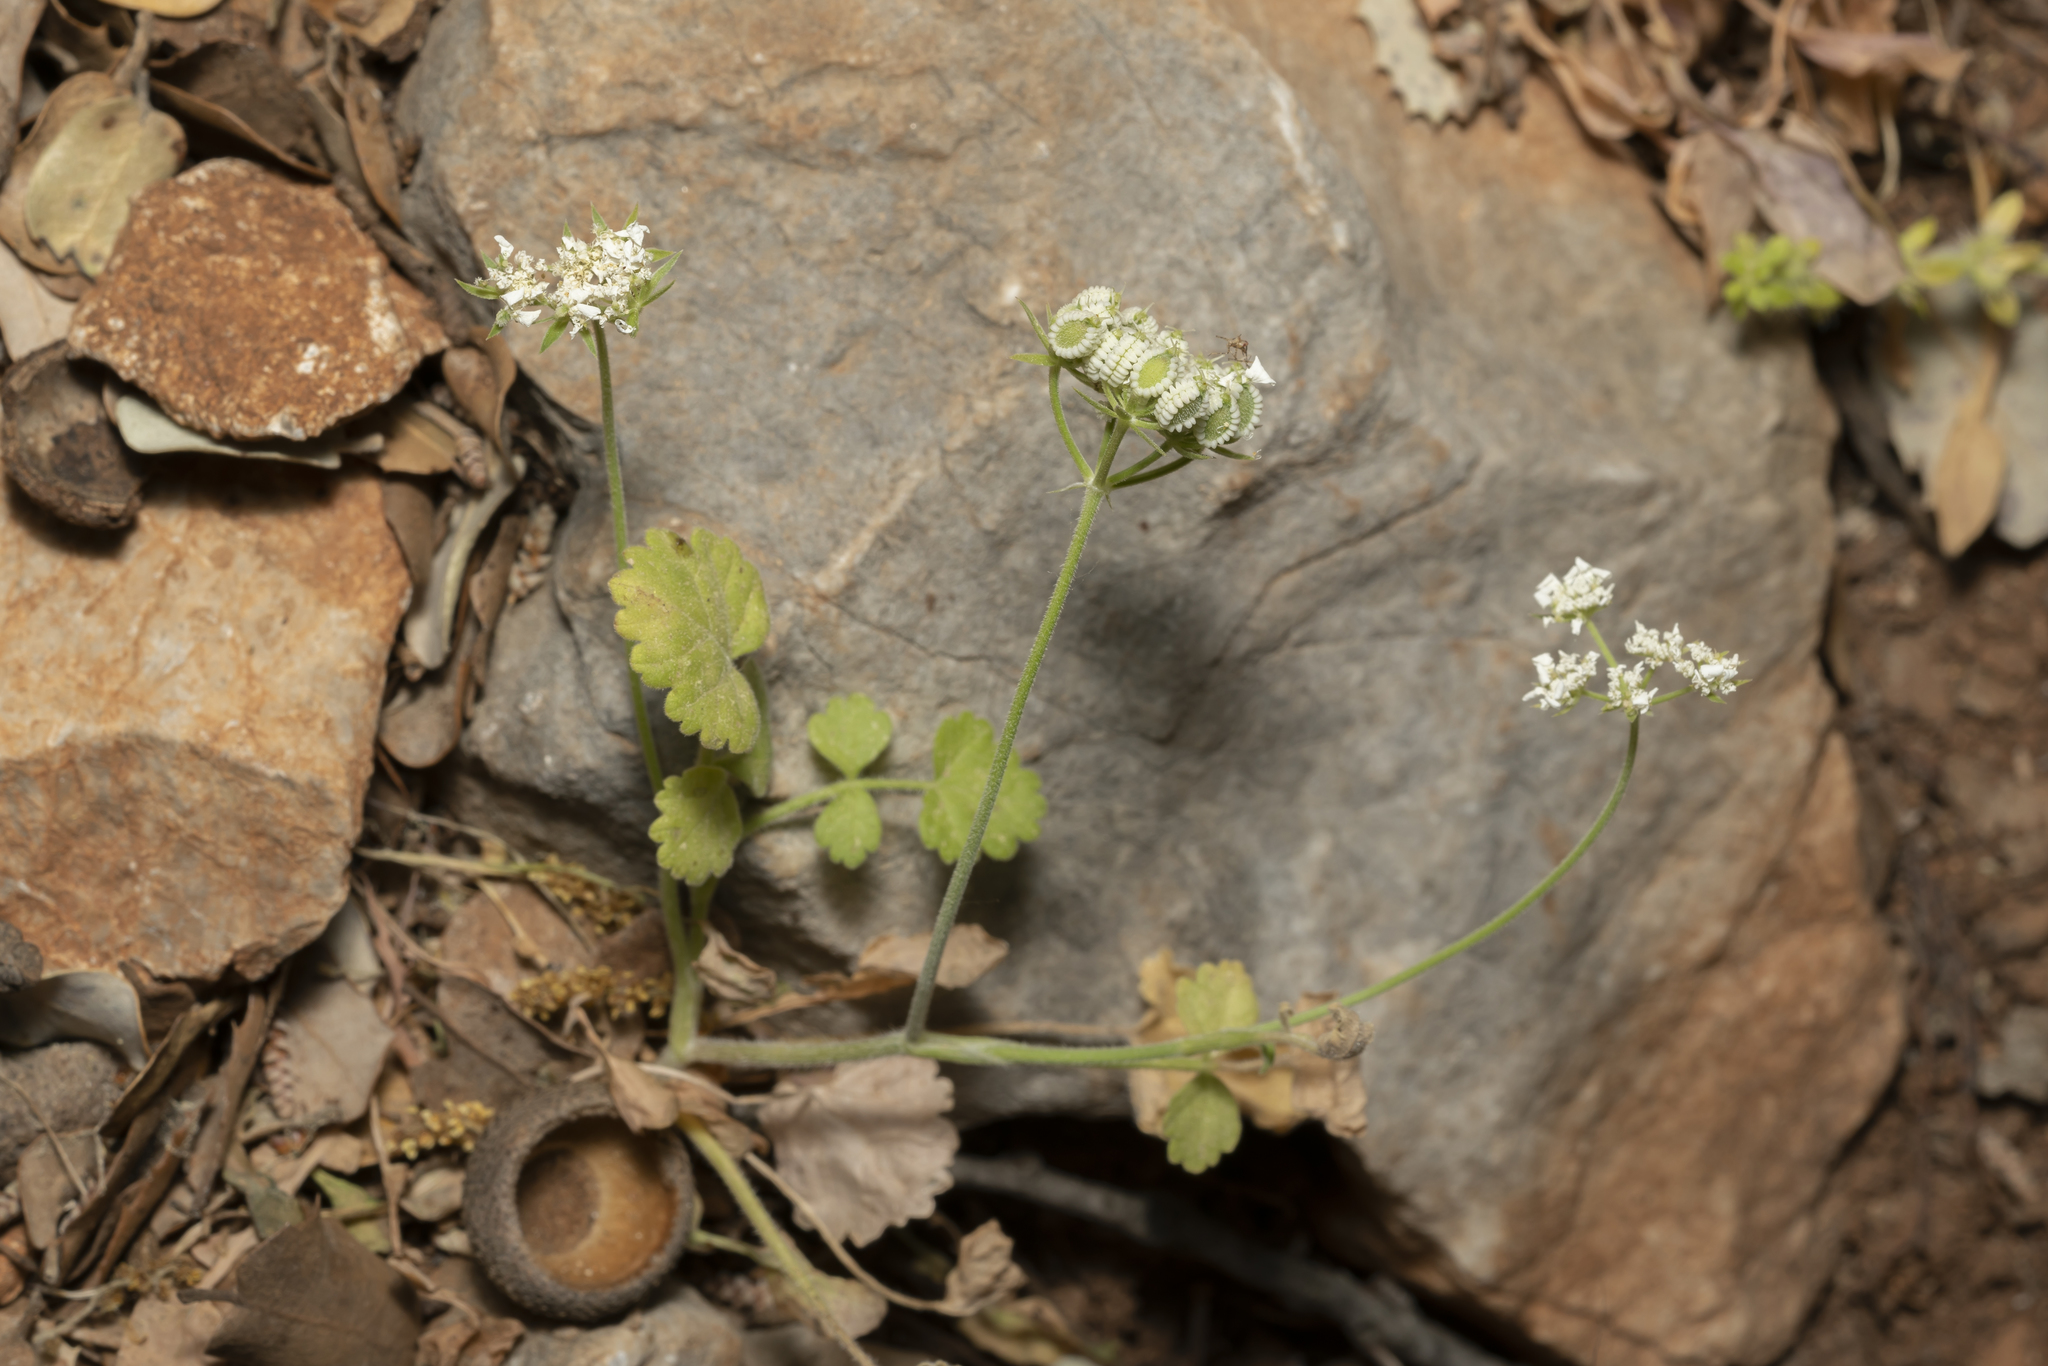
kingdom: Plantae
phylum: Tracheophyta
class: Magnoliopsida
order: Apiales
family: Apiaceae
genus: Tordylium
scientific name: Tordylium pestalozzae
